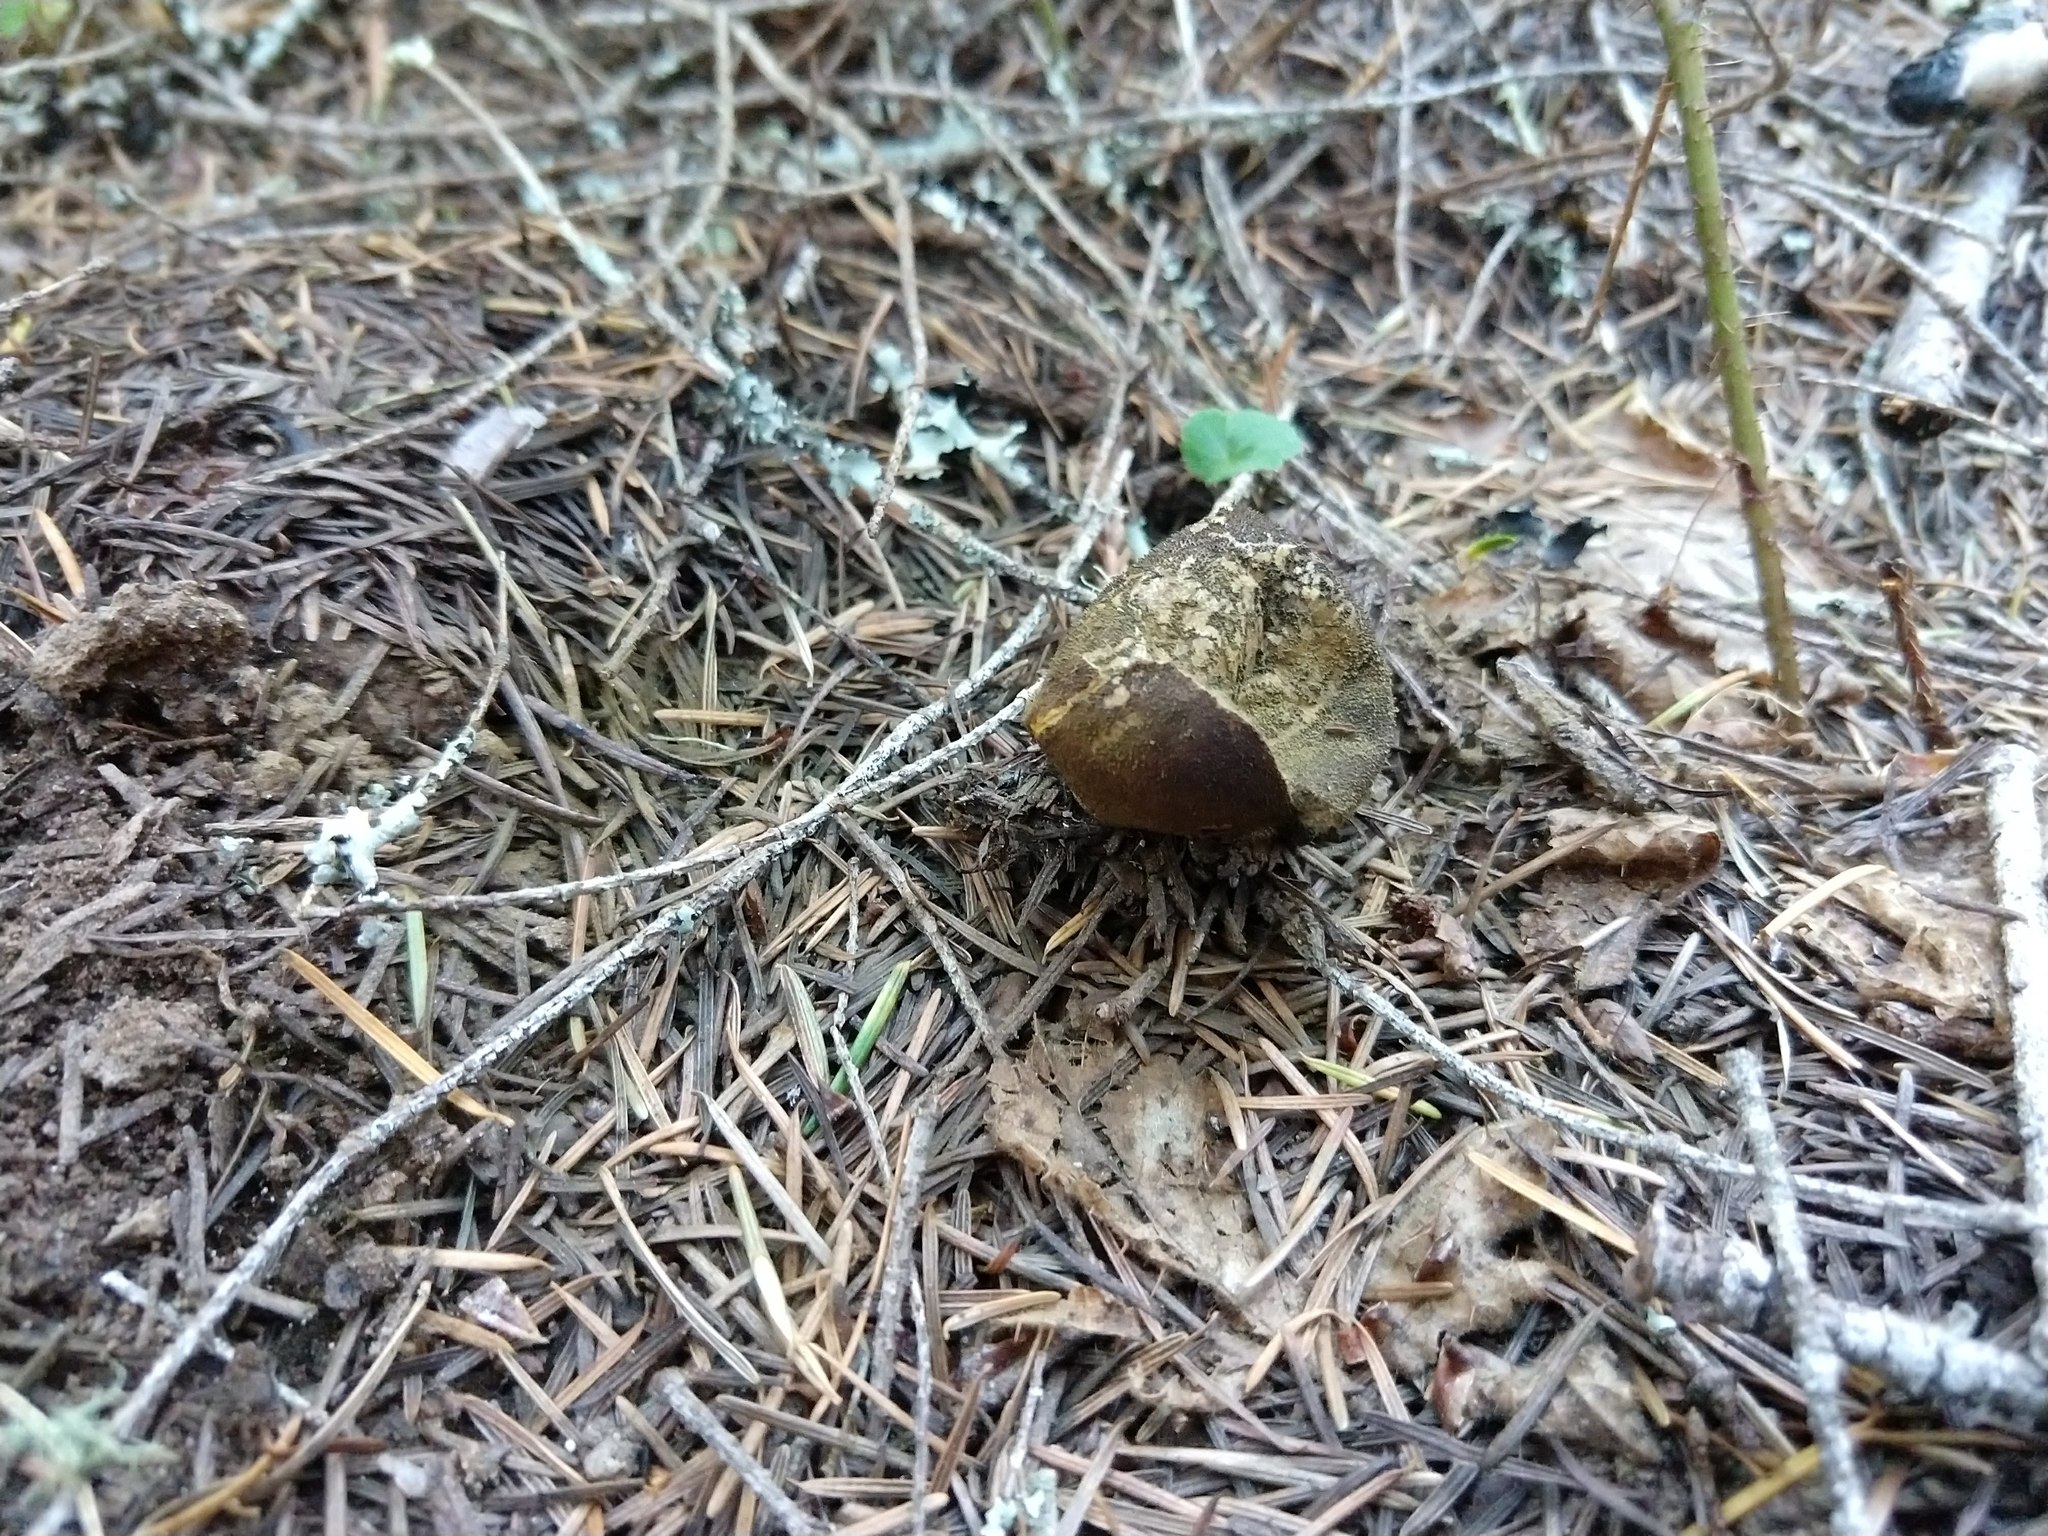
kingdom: Fungi
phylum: Basidiomycota
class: Agaricomycetes
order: Agaricales
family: Lycoperdaceae
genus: Lycoperdon
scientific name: Lycoperdon umbrinum
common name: Umber-brown puffball
